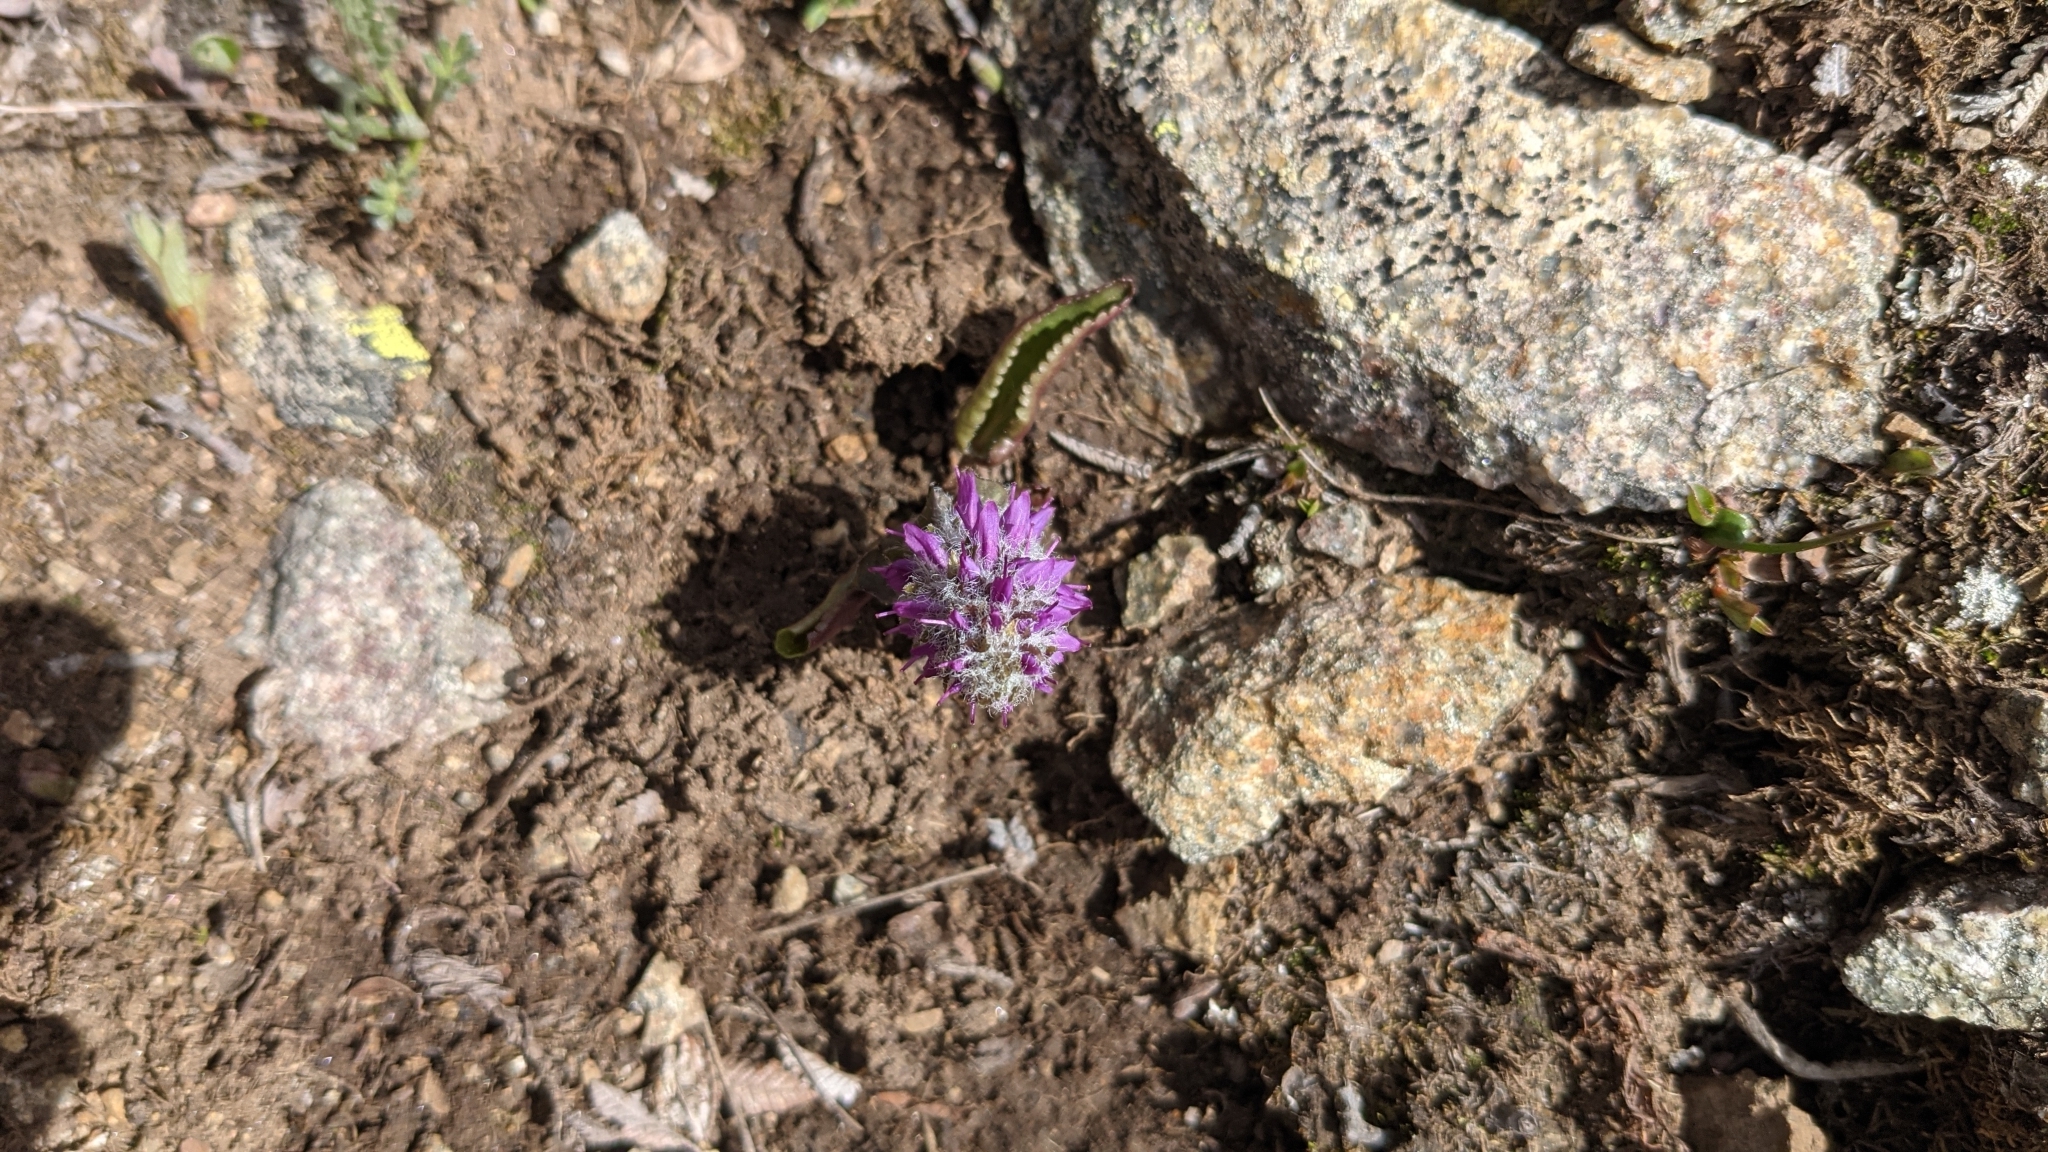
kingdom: Plantae
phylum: Tracheophyta
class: Magnoliopsida
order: Lamiales
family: Plantaginaceae
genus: Synthyris
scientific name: Synthyris alpina
